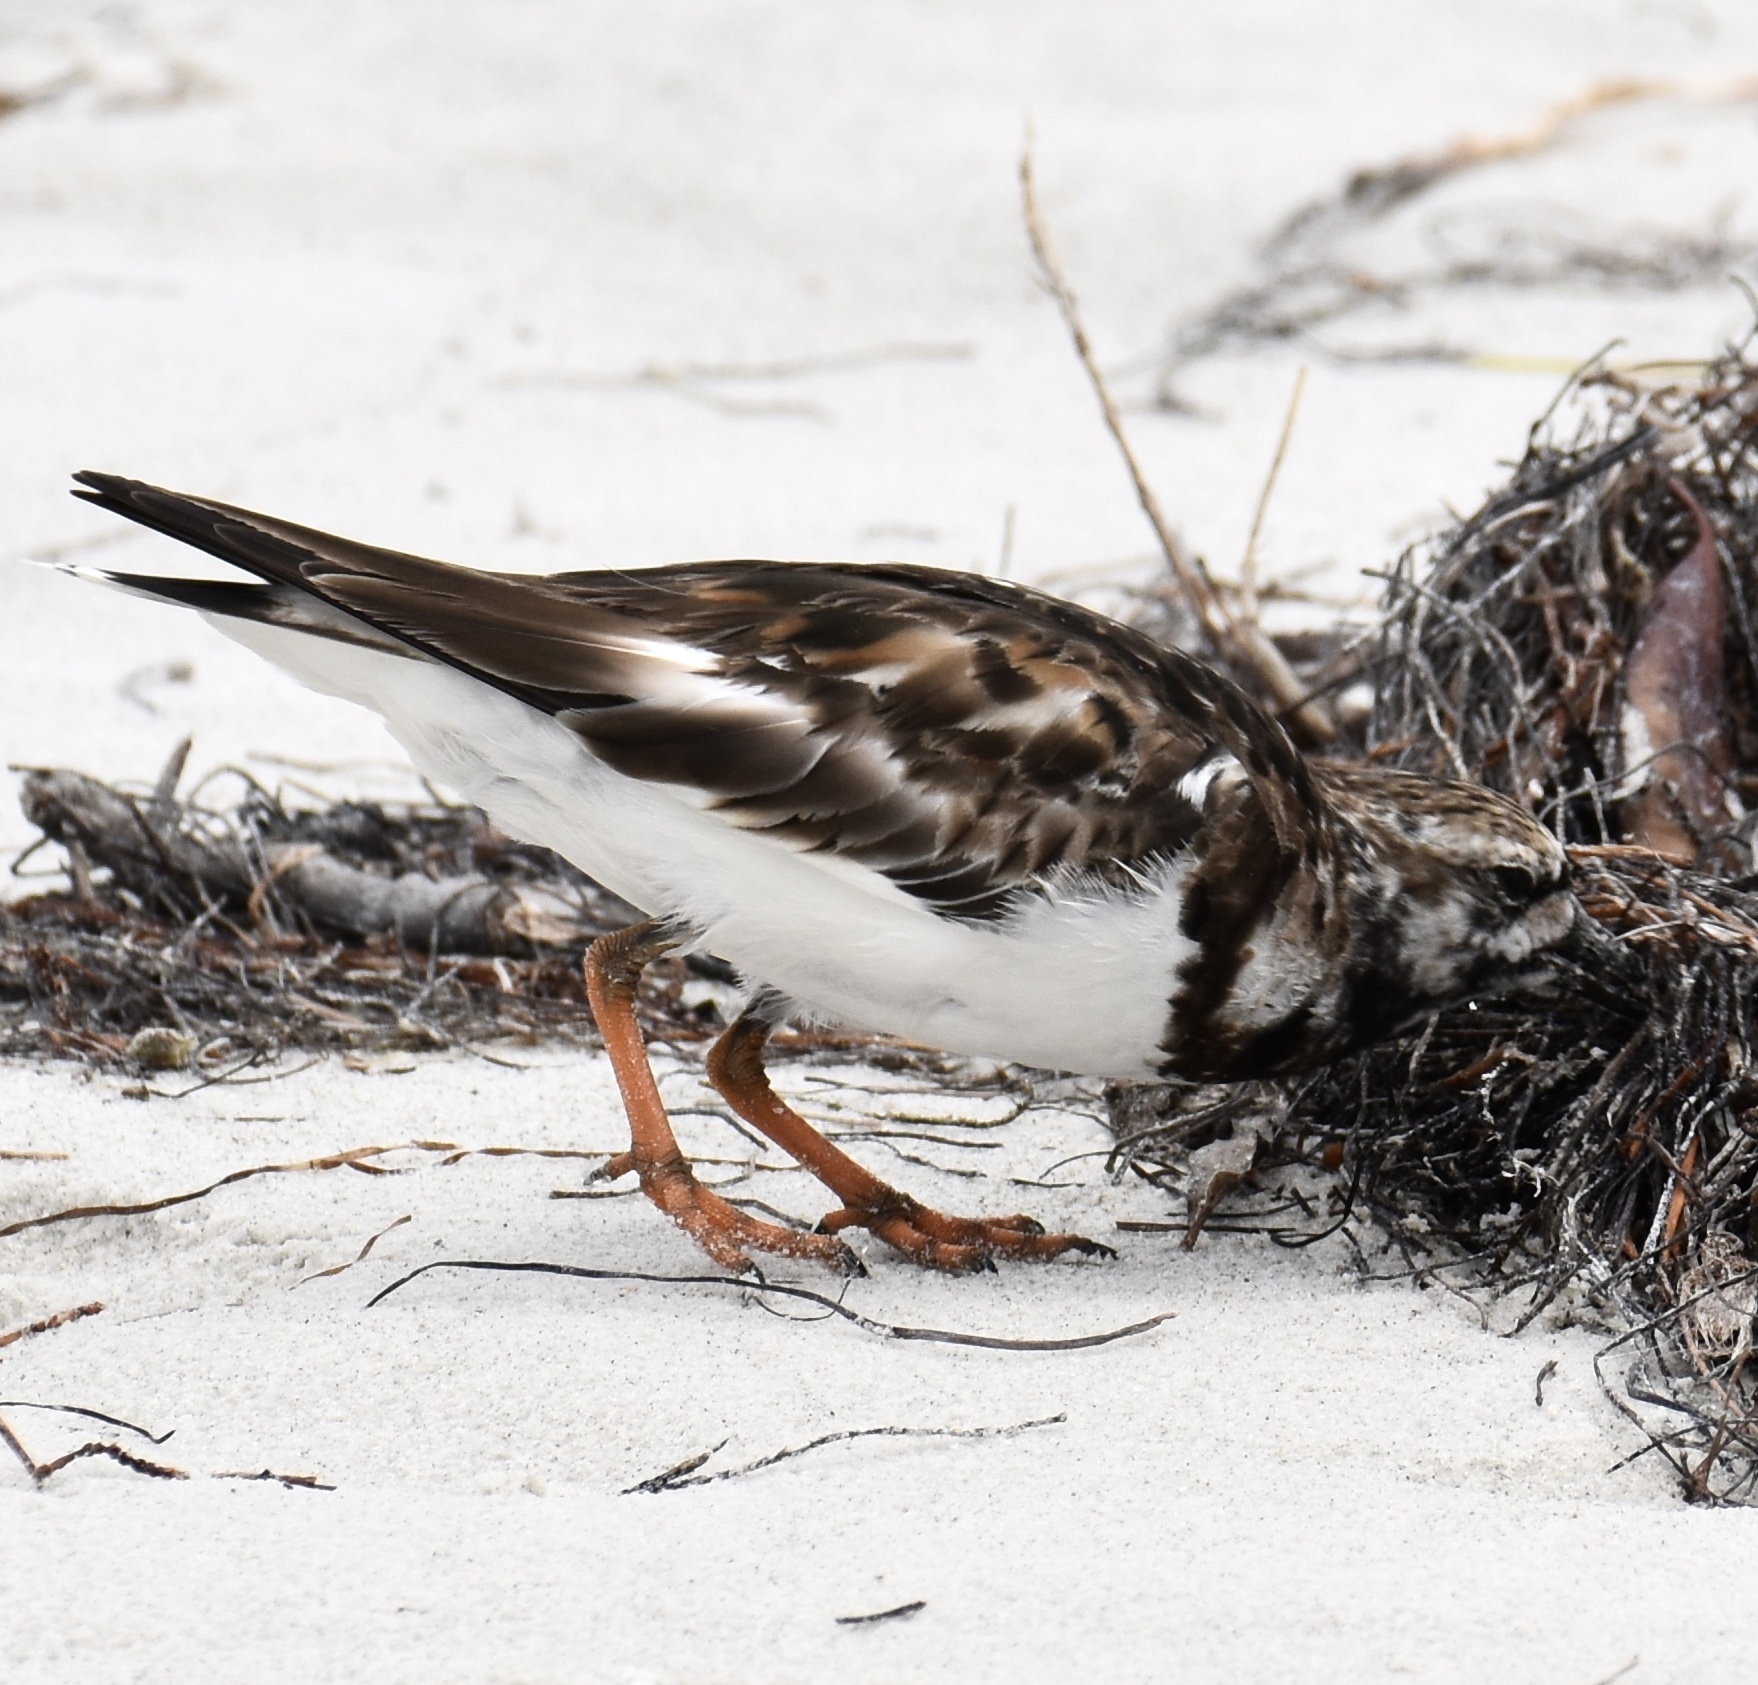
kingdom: Animalia
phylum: Chordata
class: Aves
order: Charadriiformes
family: Scolopacidae
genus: Arenaria
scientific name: Arenaria interpres
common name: Ruddy turnstone
